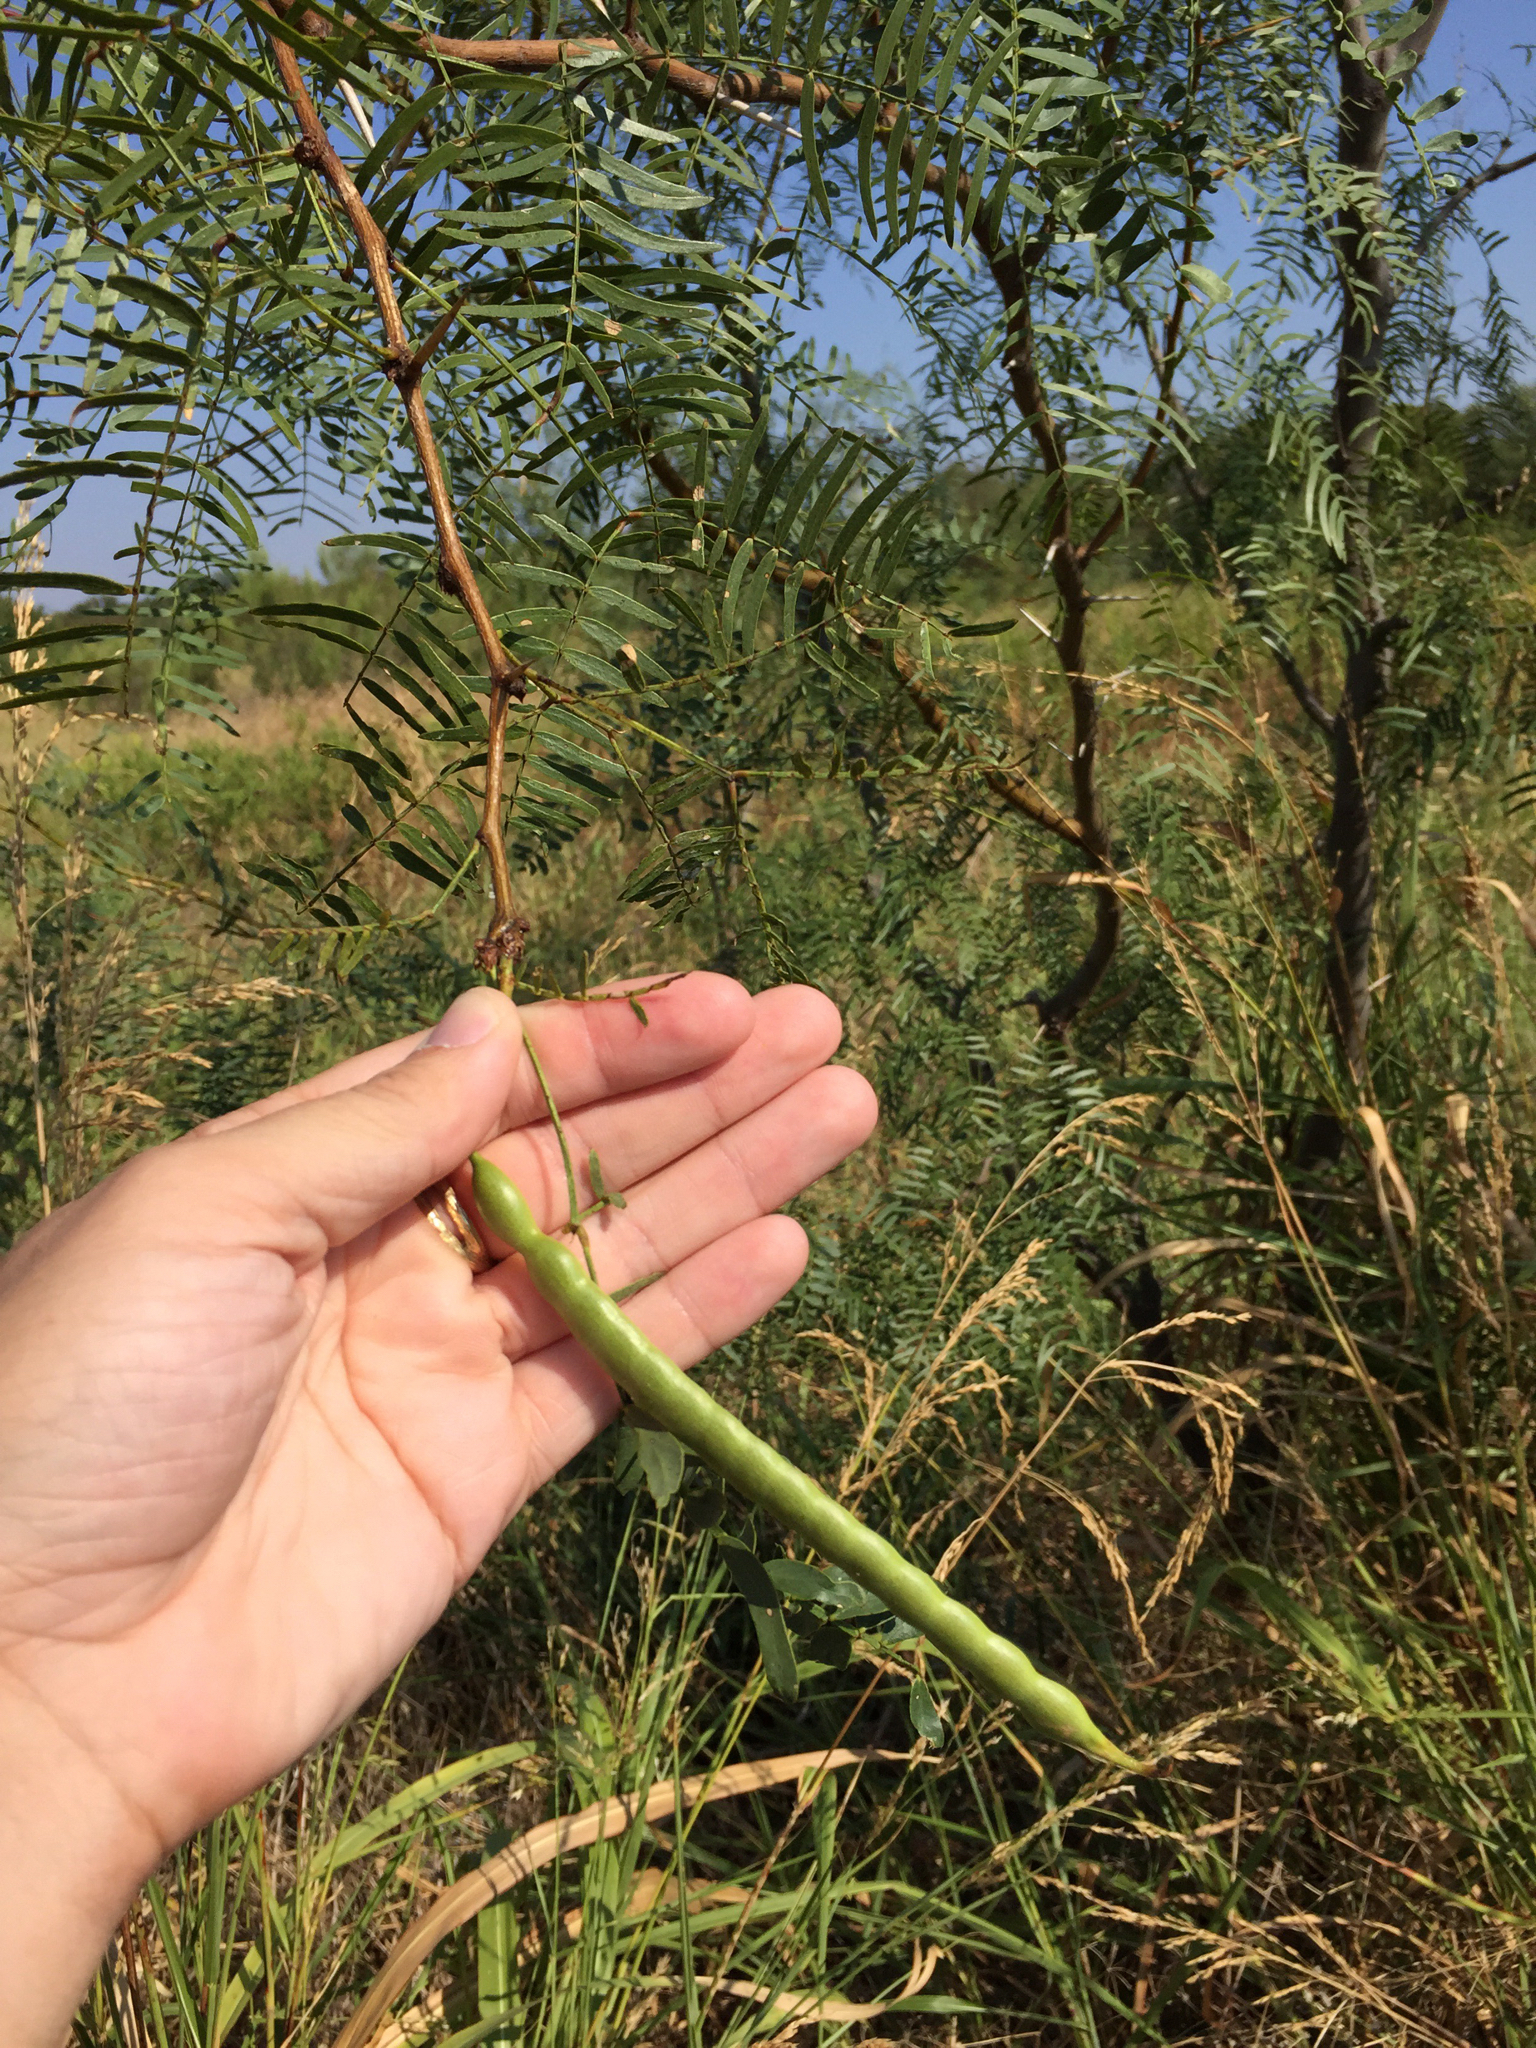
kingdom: Plantae
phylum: Tracheophyta
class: Magnoliopsida
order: Fabales
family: Fabaceae
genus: Prosopis
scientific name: Prosopis glandulosa
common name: Honey mesquite
